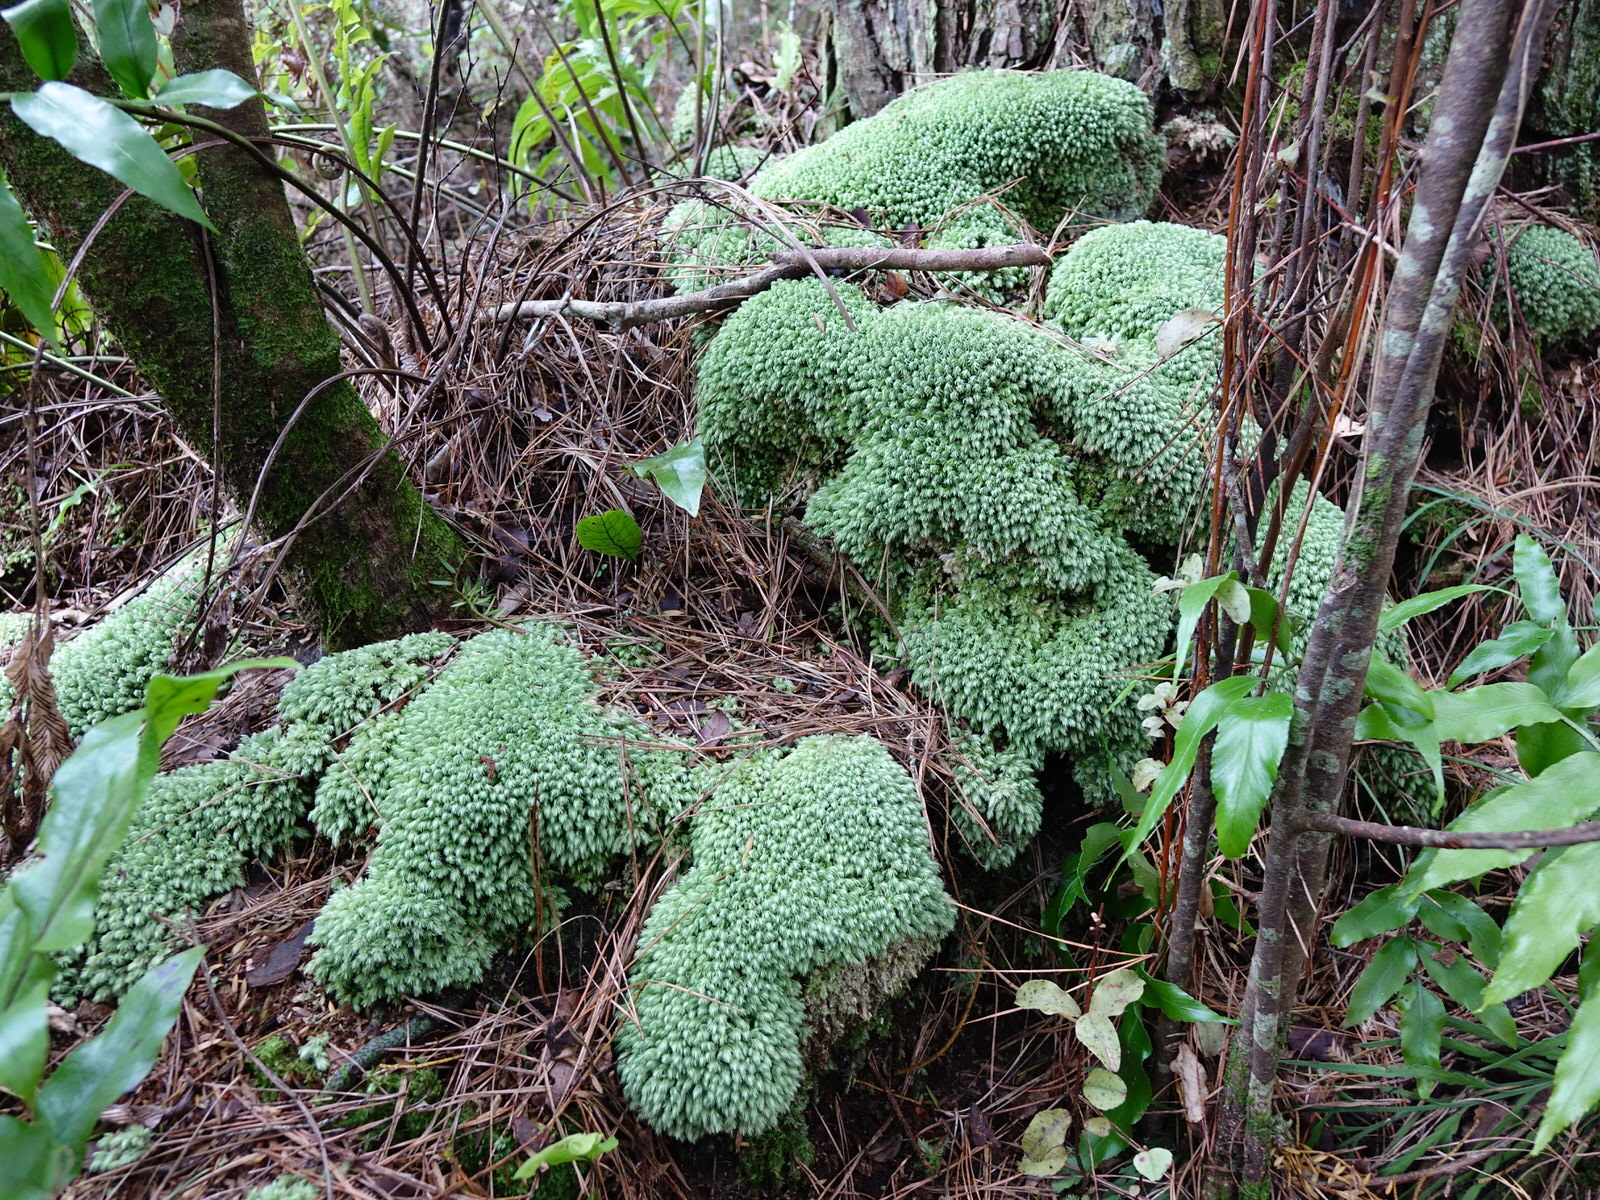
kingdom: Plantae
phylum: Bryophyta
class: Bryopsida
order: Dicranales
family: Leucobryaceae
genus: Leucobryum
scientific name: Leucobryum javense
